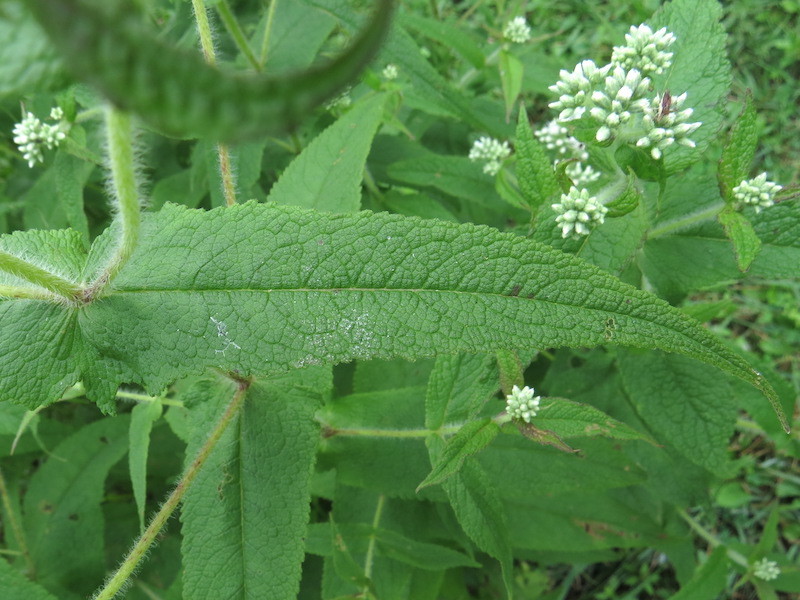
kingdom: Plantae
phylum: Tracheophyta
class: Magnoliopsida
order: Asterales
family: Asteraceae
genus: Eupatorium
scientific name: Eupatorium perfoliatum
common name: Boneset
